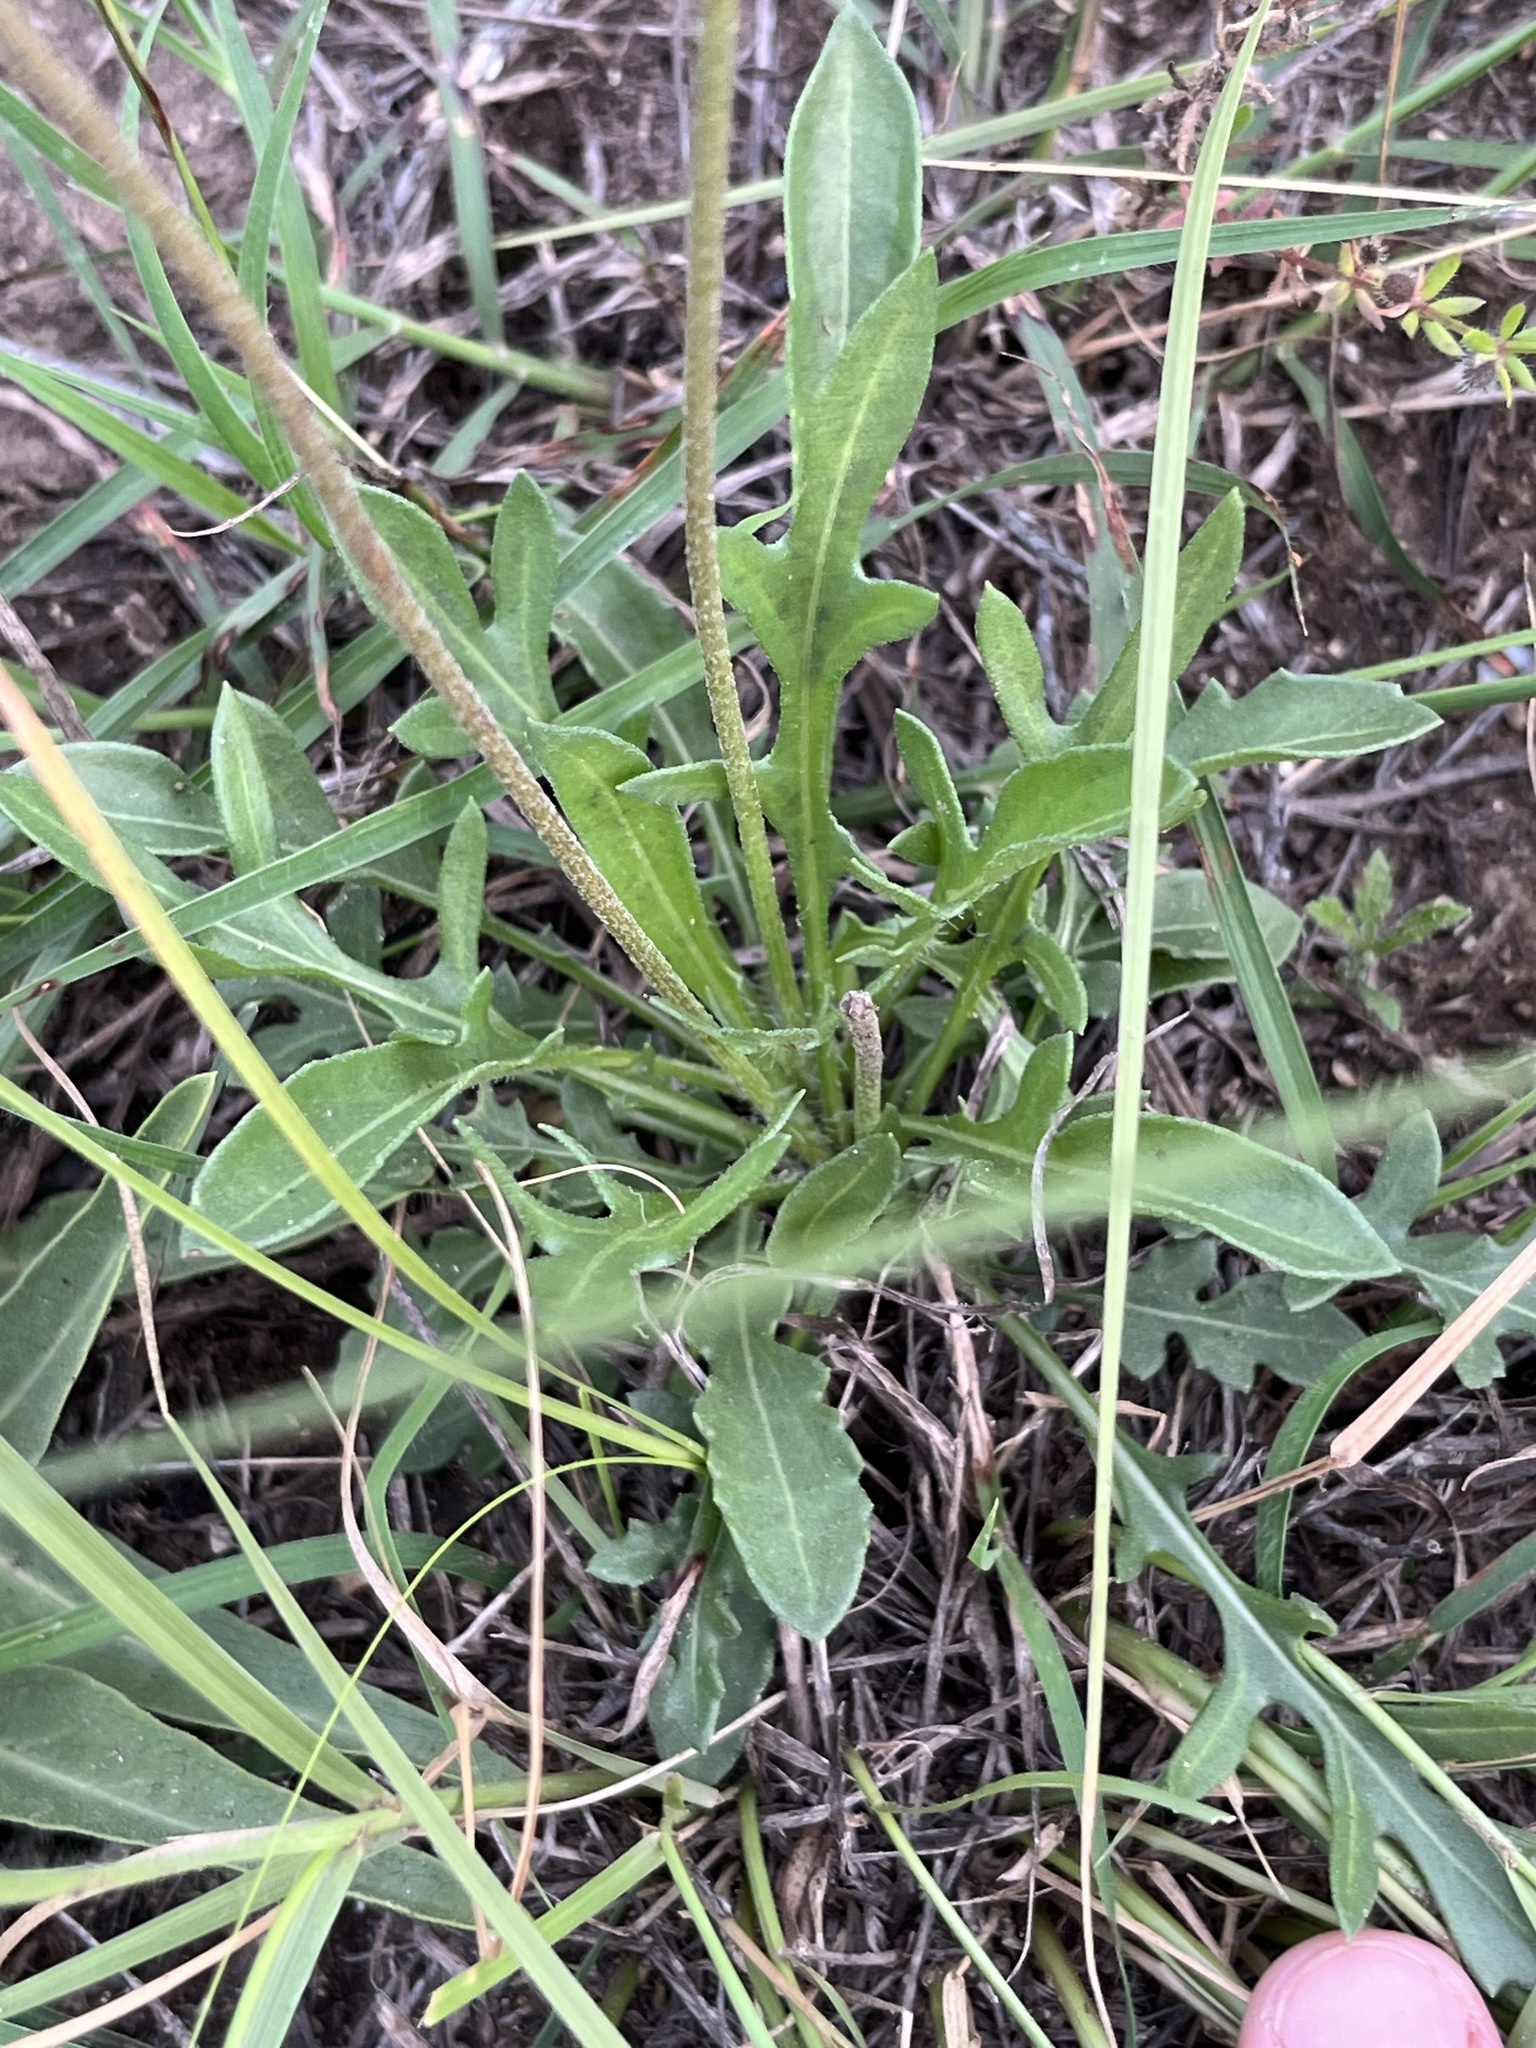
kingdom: Plantae
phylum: Tracheophyta
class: Magnoliopsida
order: Asterales
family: Asteraceae
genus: Gaillardia
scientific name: Gaillardia suavis
